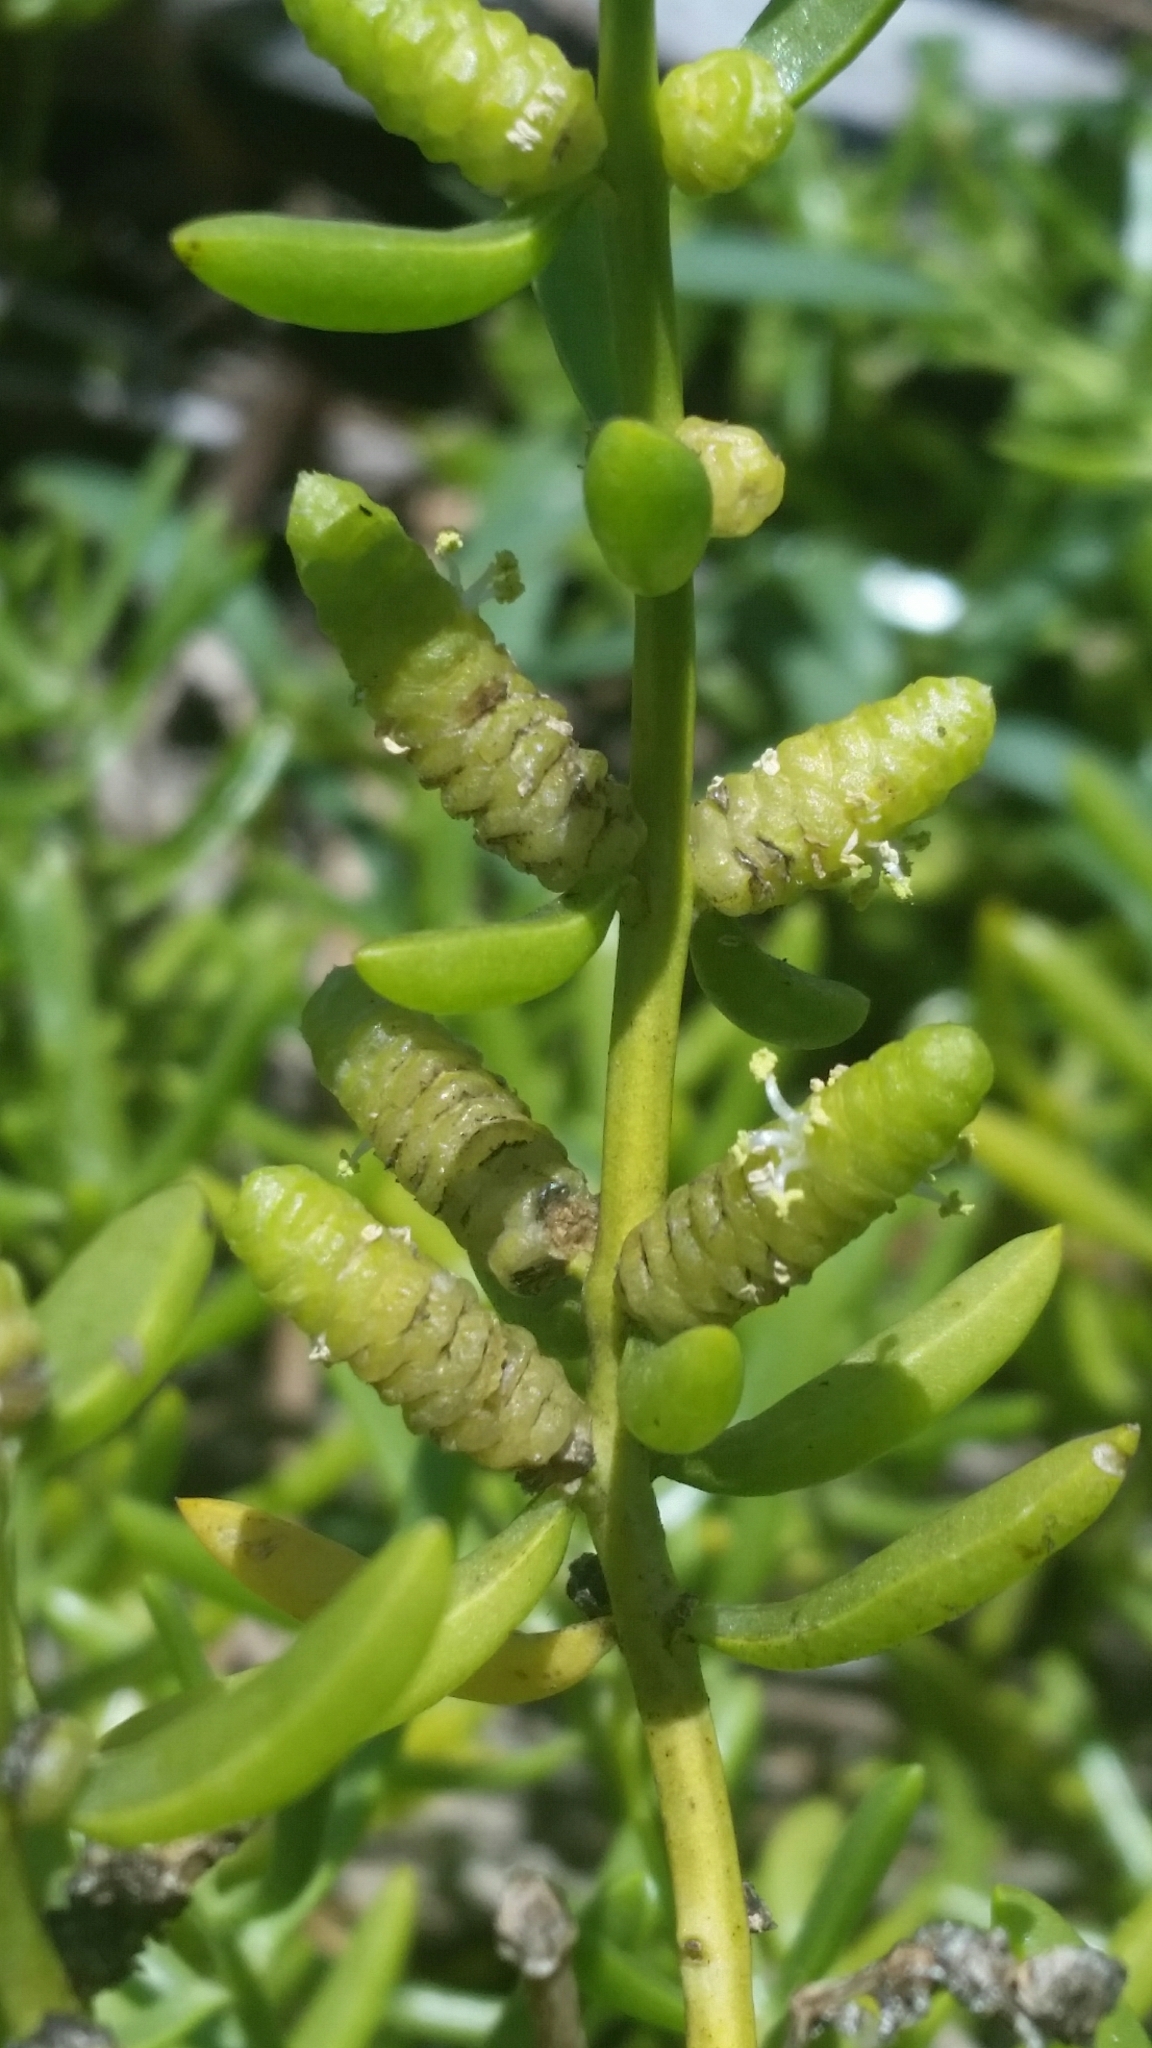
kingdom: Plantae
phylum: Tracheophyta
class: Magnoliopsida
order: Brassicales
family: Bataceae
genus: Batis
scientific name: Batis maritima
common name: Turtleweed
